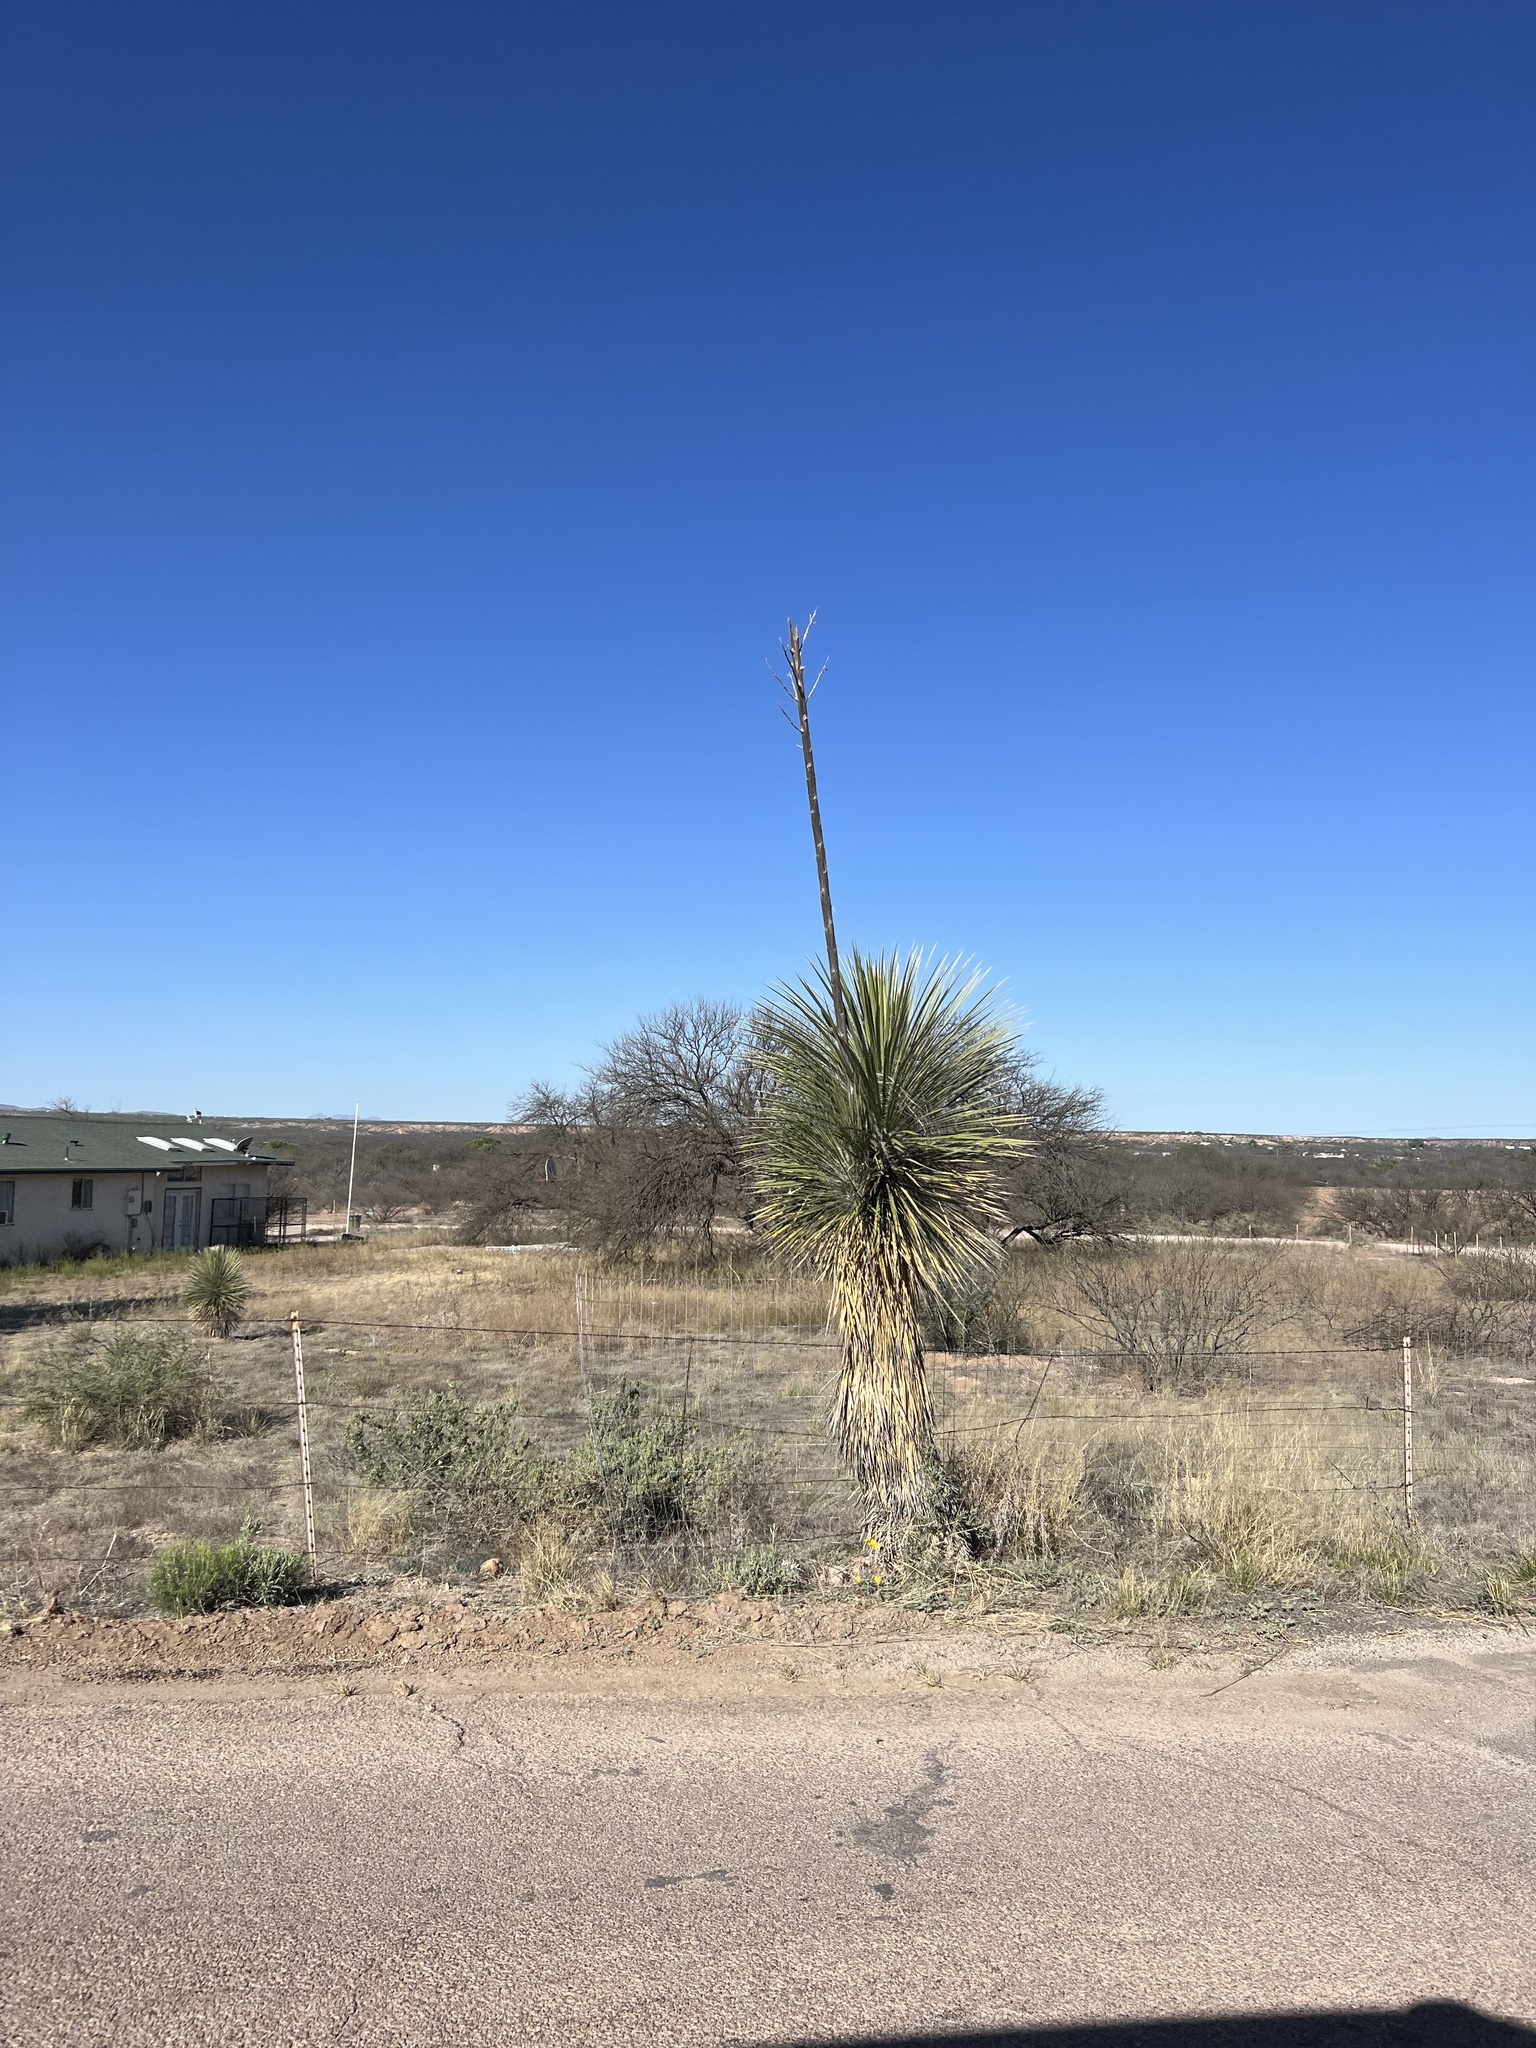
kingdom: Plantae
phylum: Tracheophyta
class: Liliopsida
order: Asparagales
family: Asparagaceae
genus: Yucca
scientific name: Yucca elata
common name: Palmella
